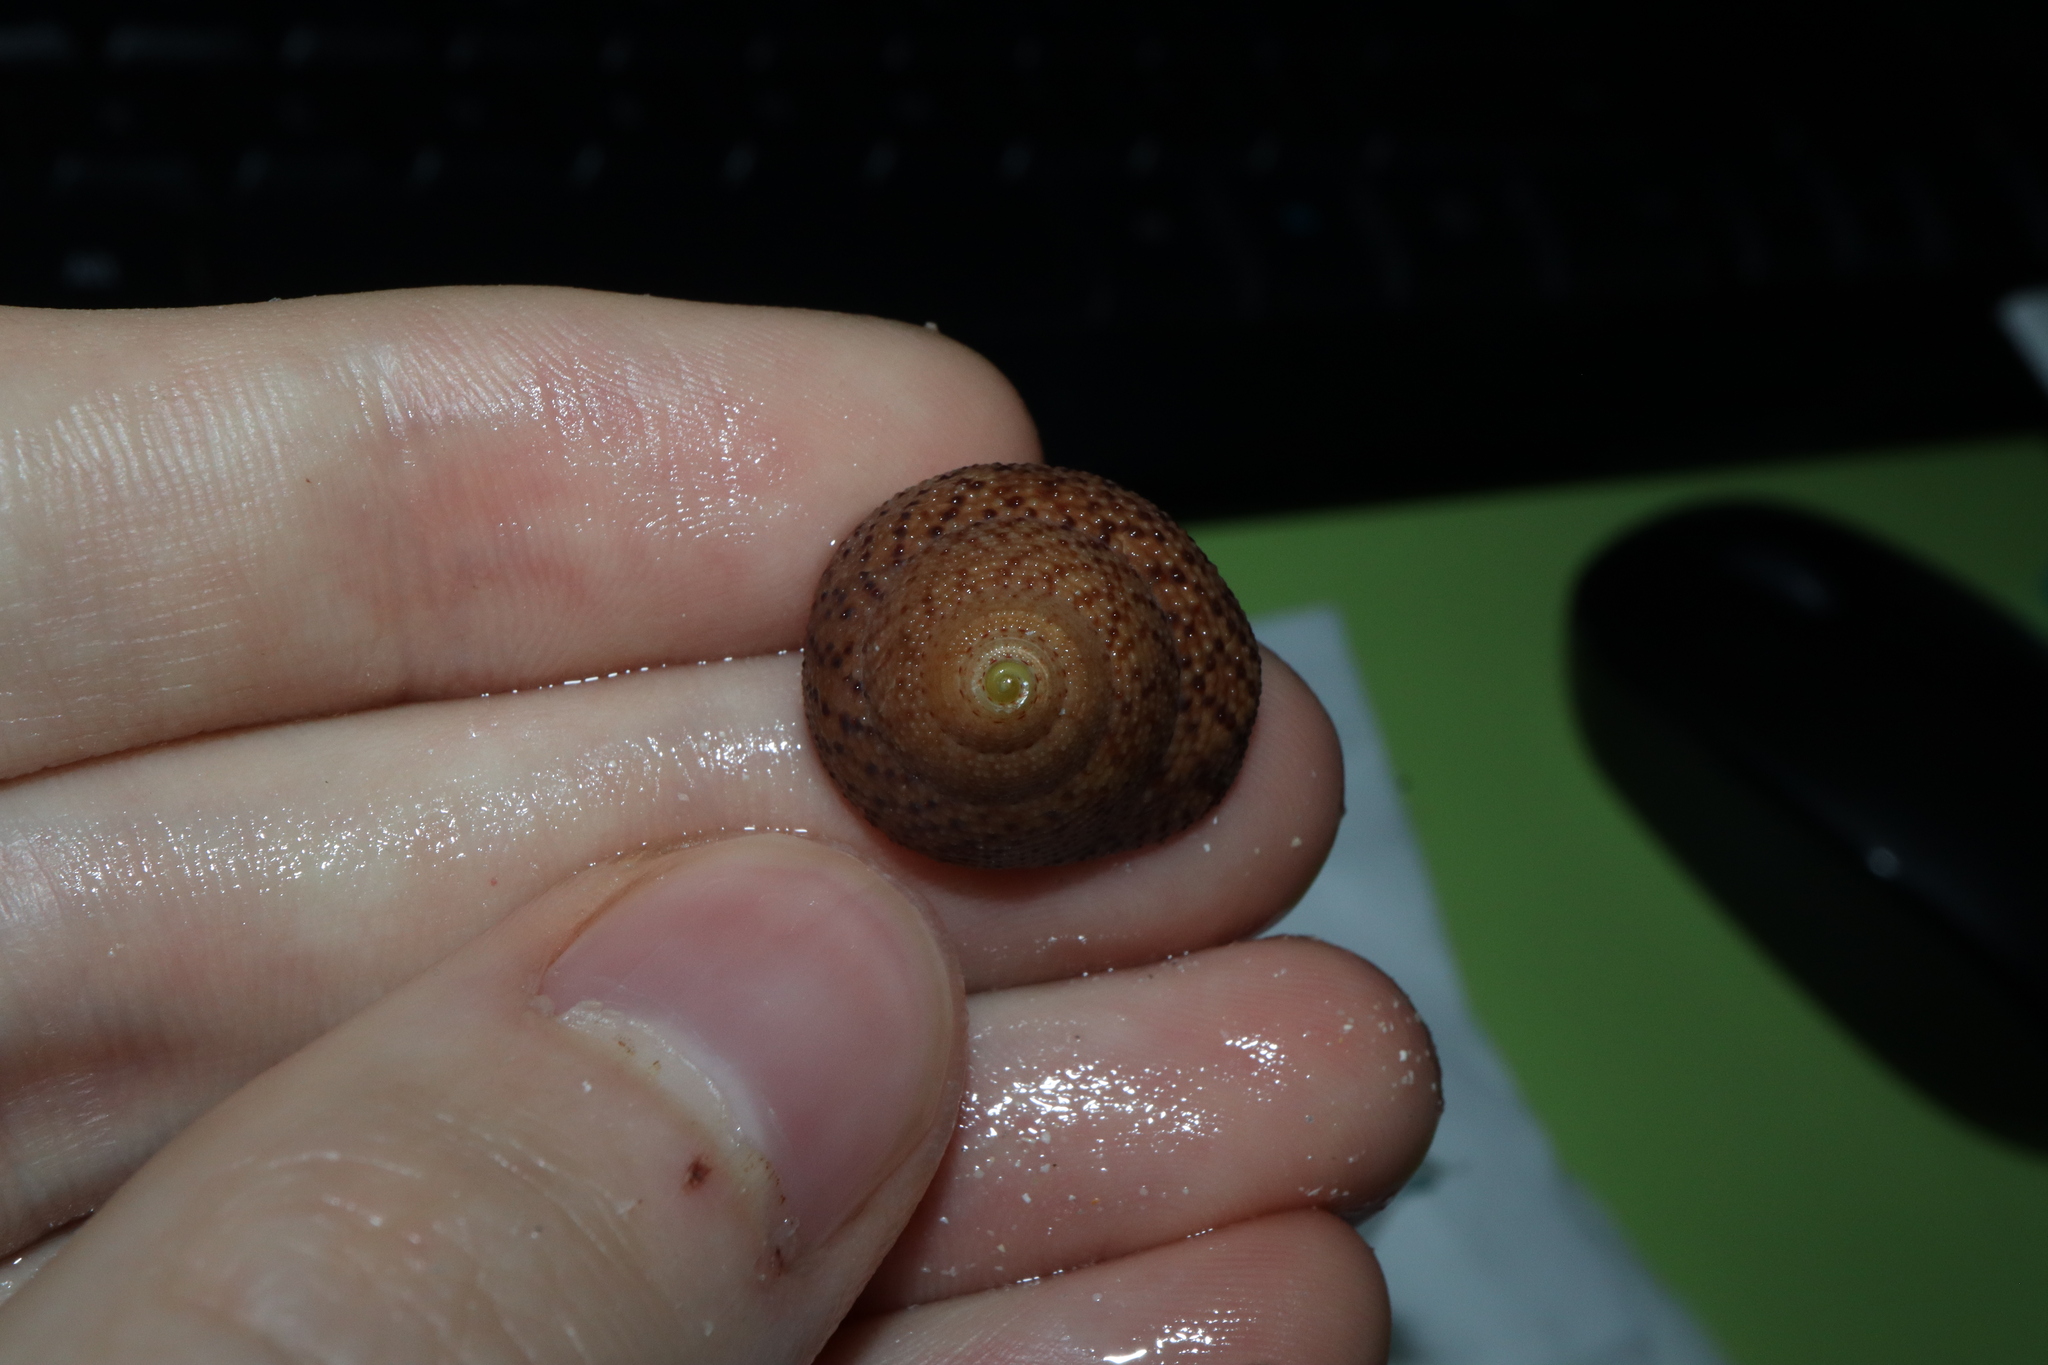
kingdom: Animalia
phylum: Mollusca
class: Gastropoda
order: Trochida
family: Trochidae
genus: Clanculus
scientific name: Clanculus undatus
